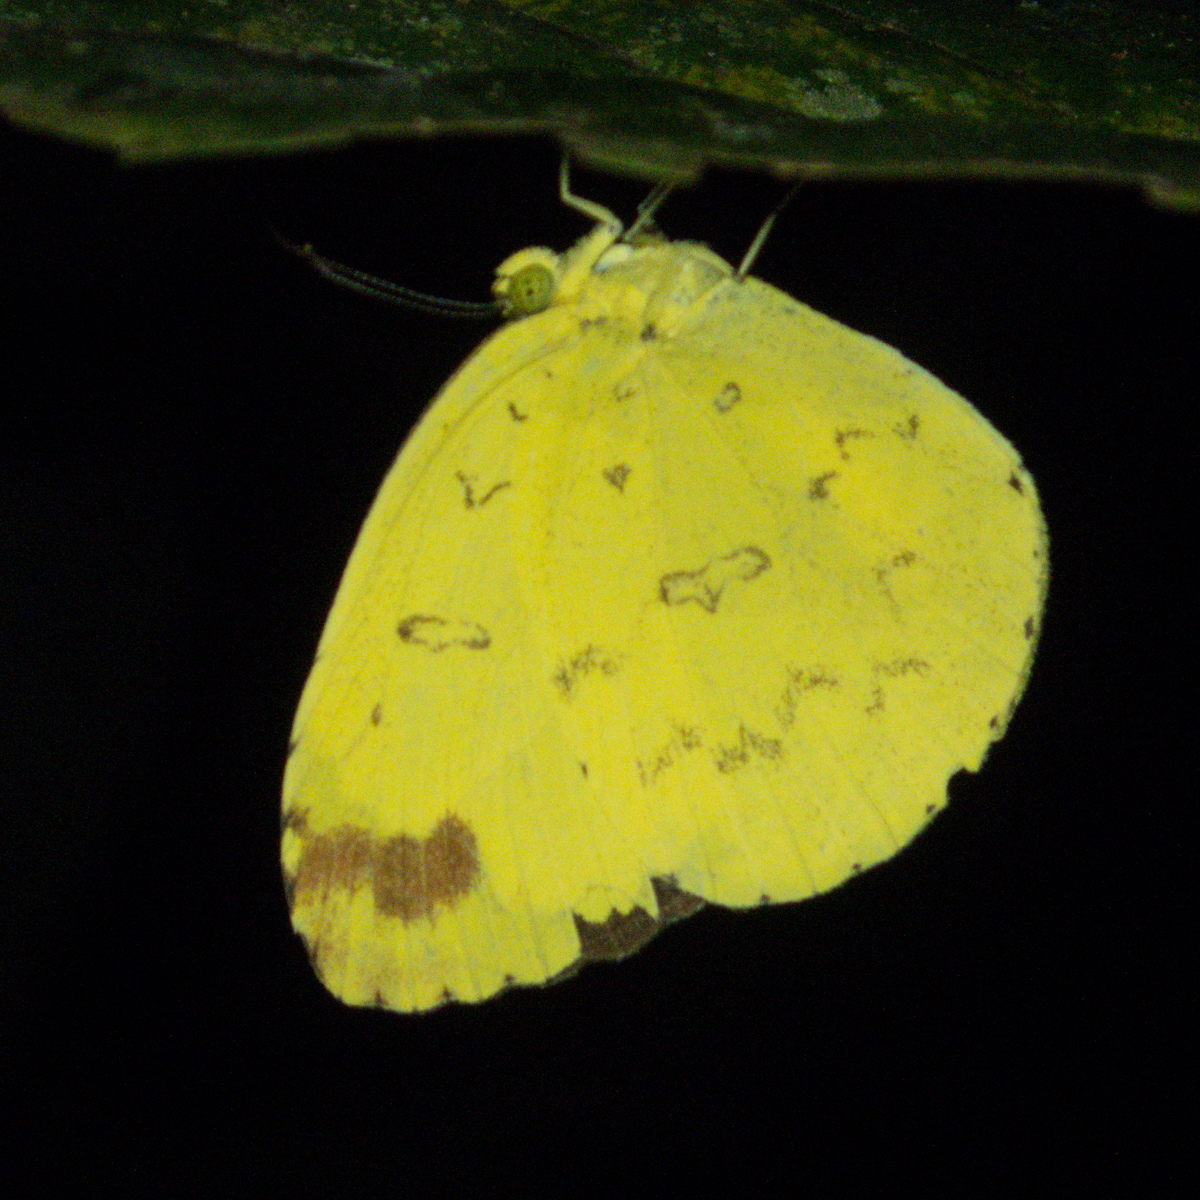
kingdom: Animalia
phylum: Arthropoda
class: Insecta
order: Lepidoptera
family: Pieridae
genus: Eurema
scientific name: Eurema blanda
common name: Three-spot grass yellow
